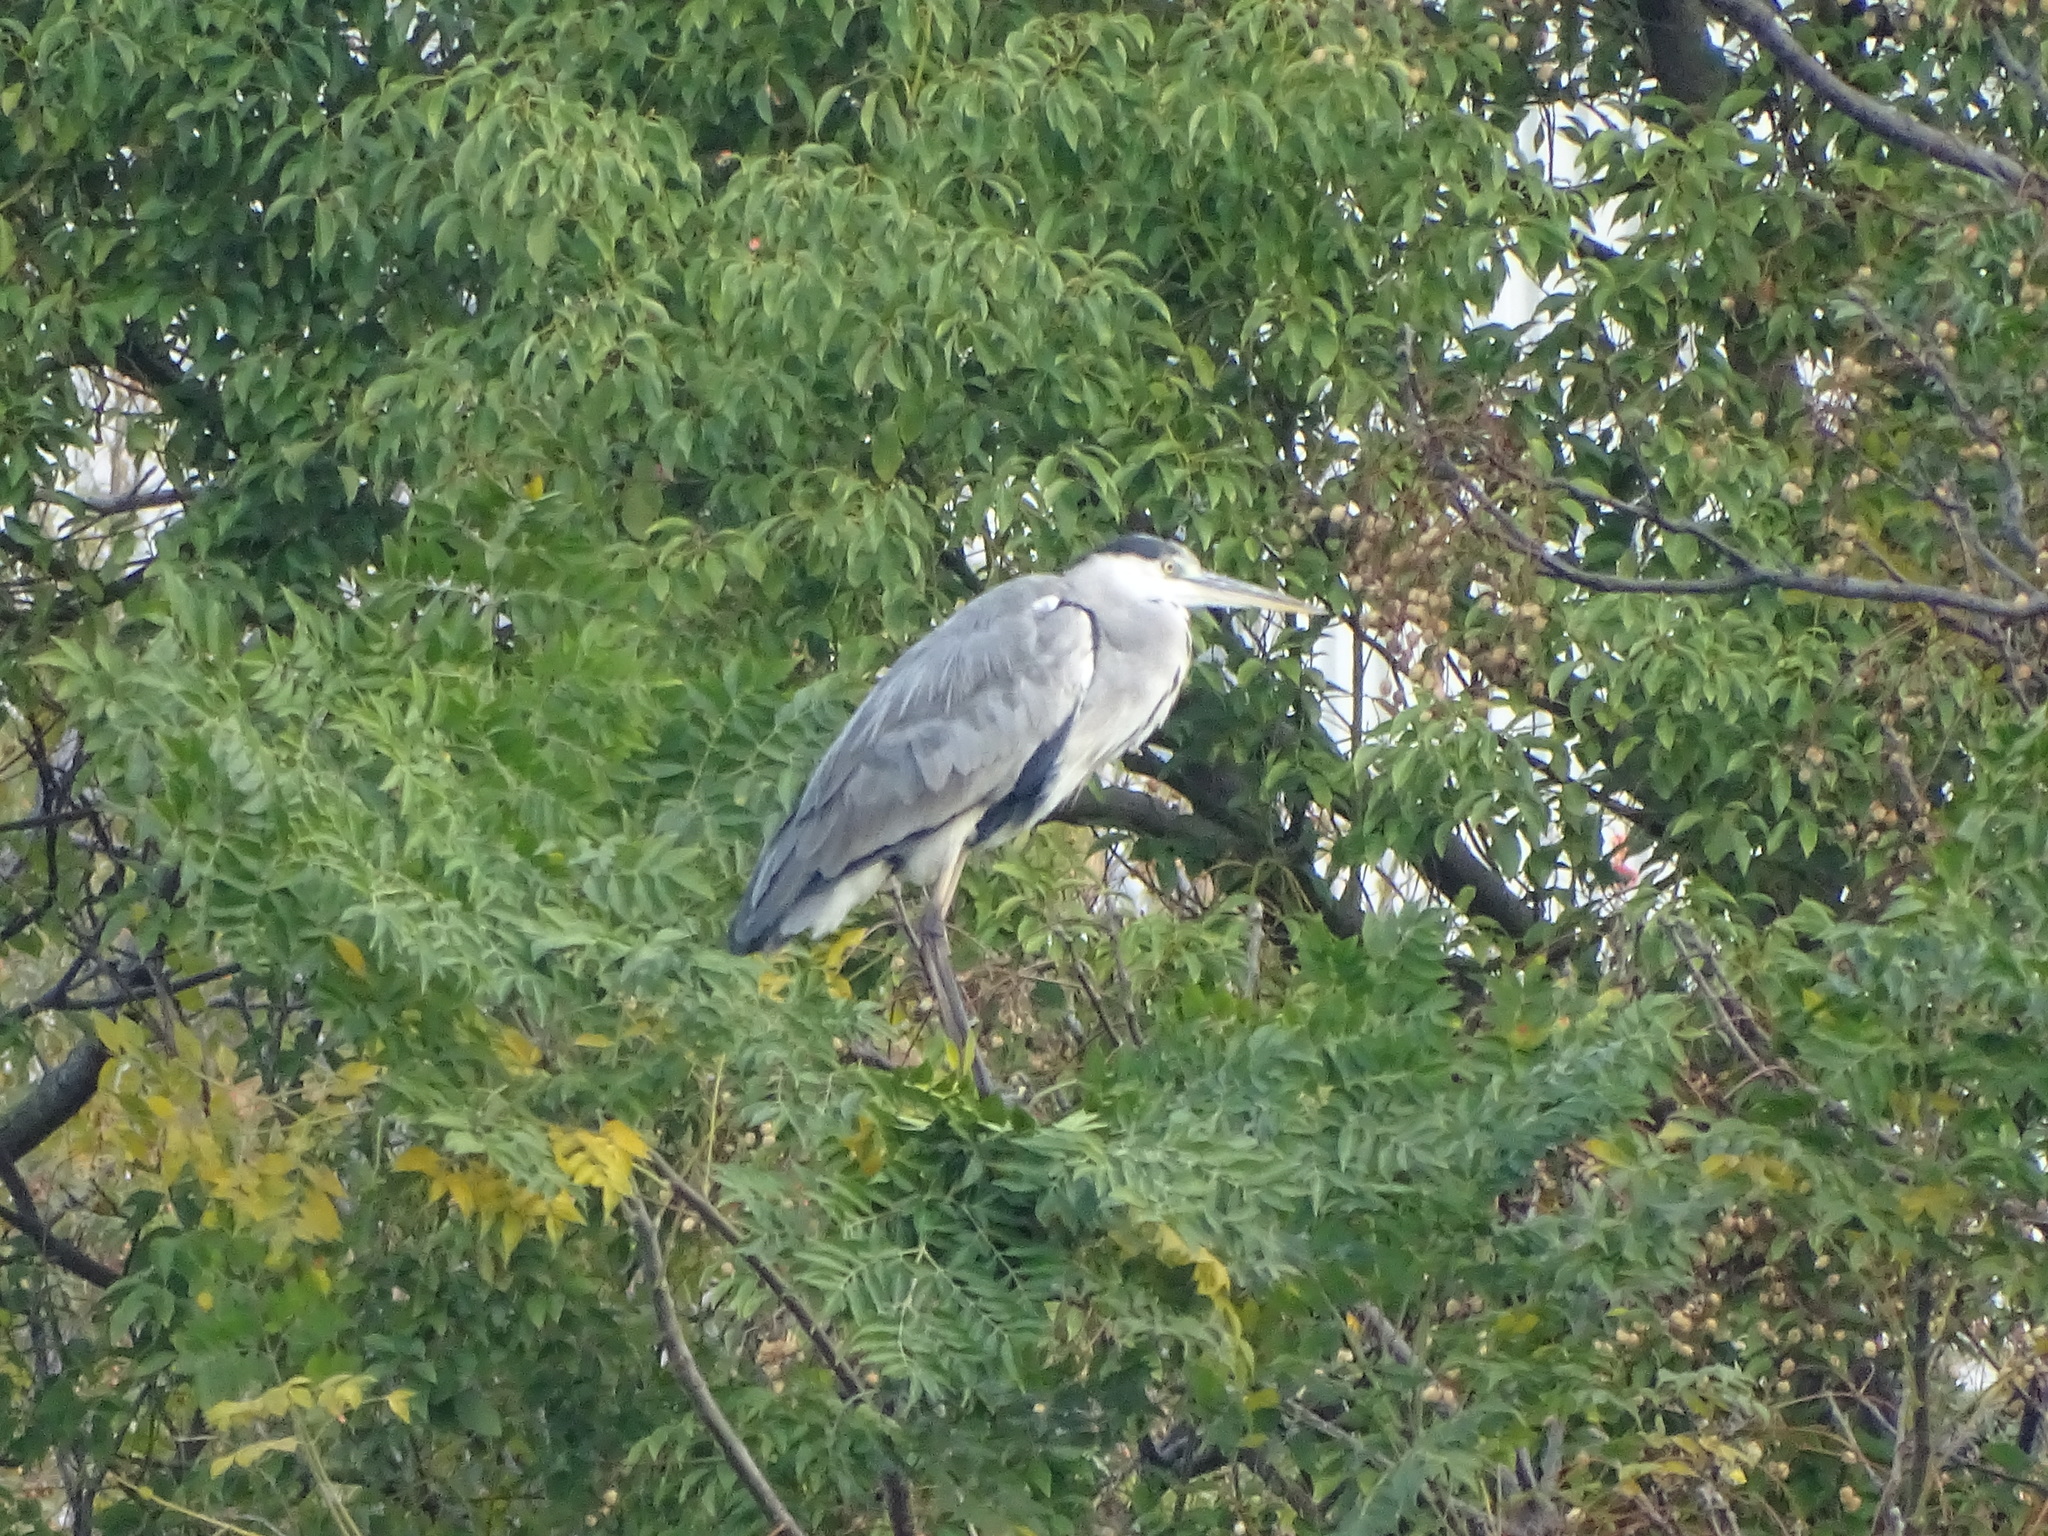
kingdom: Animalia
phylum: Chordata
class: Aves
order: Pelecaniformes
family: Ardeidae
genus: Ardea
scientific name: Ardea cinerea
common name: Grey heron
